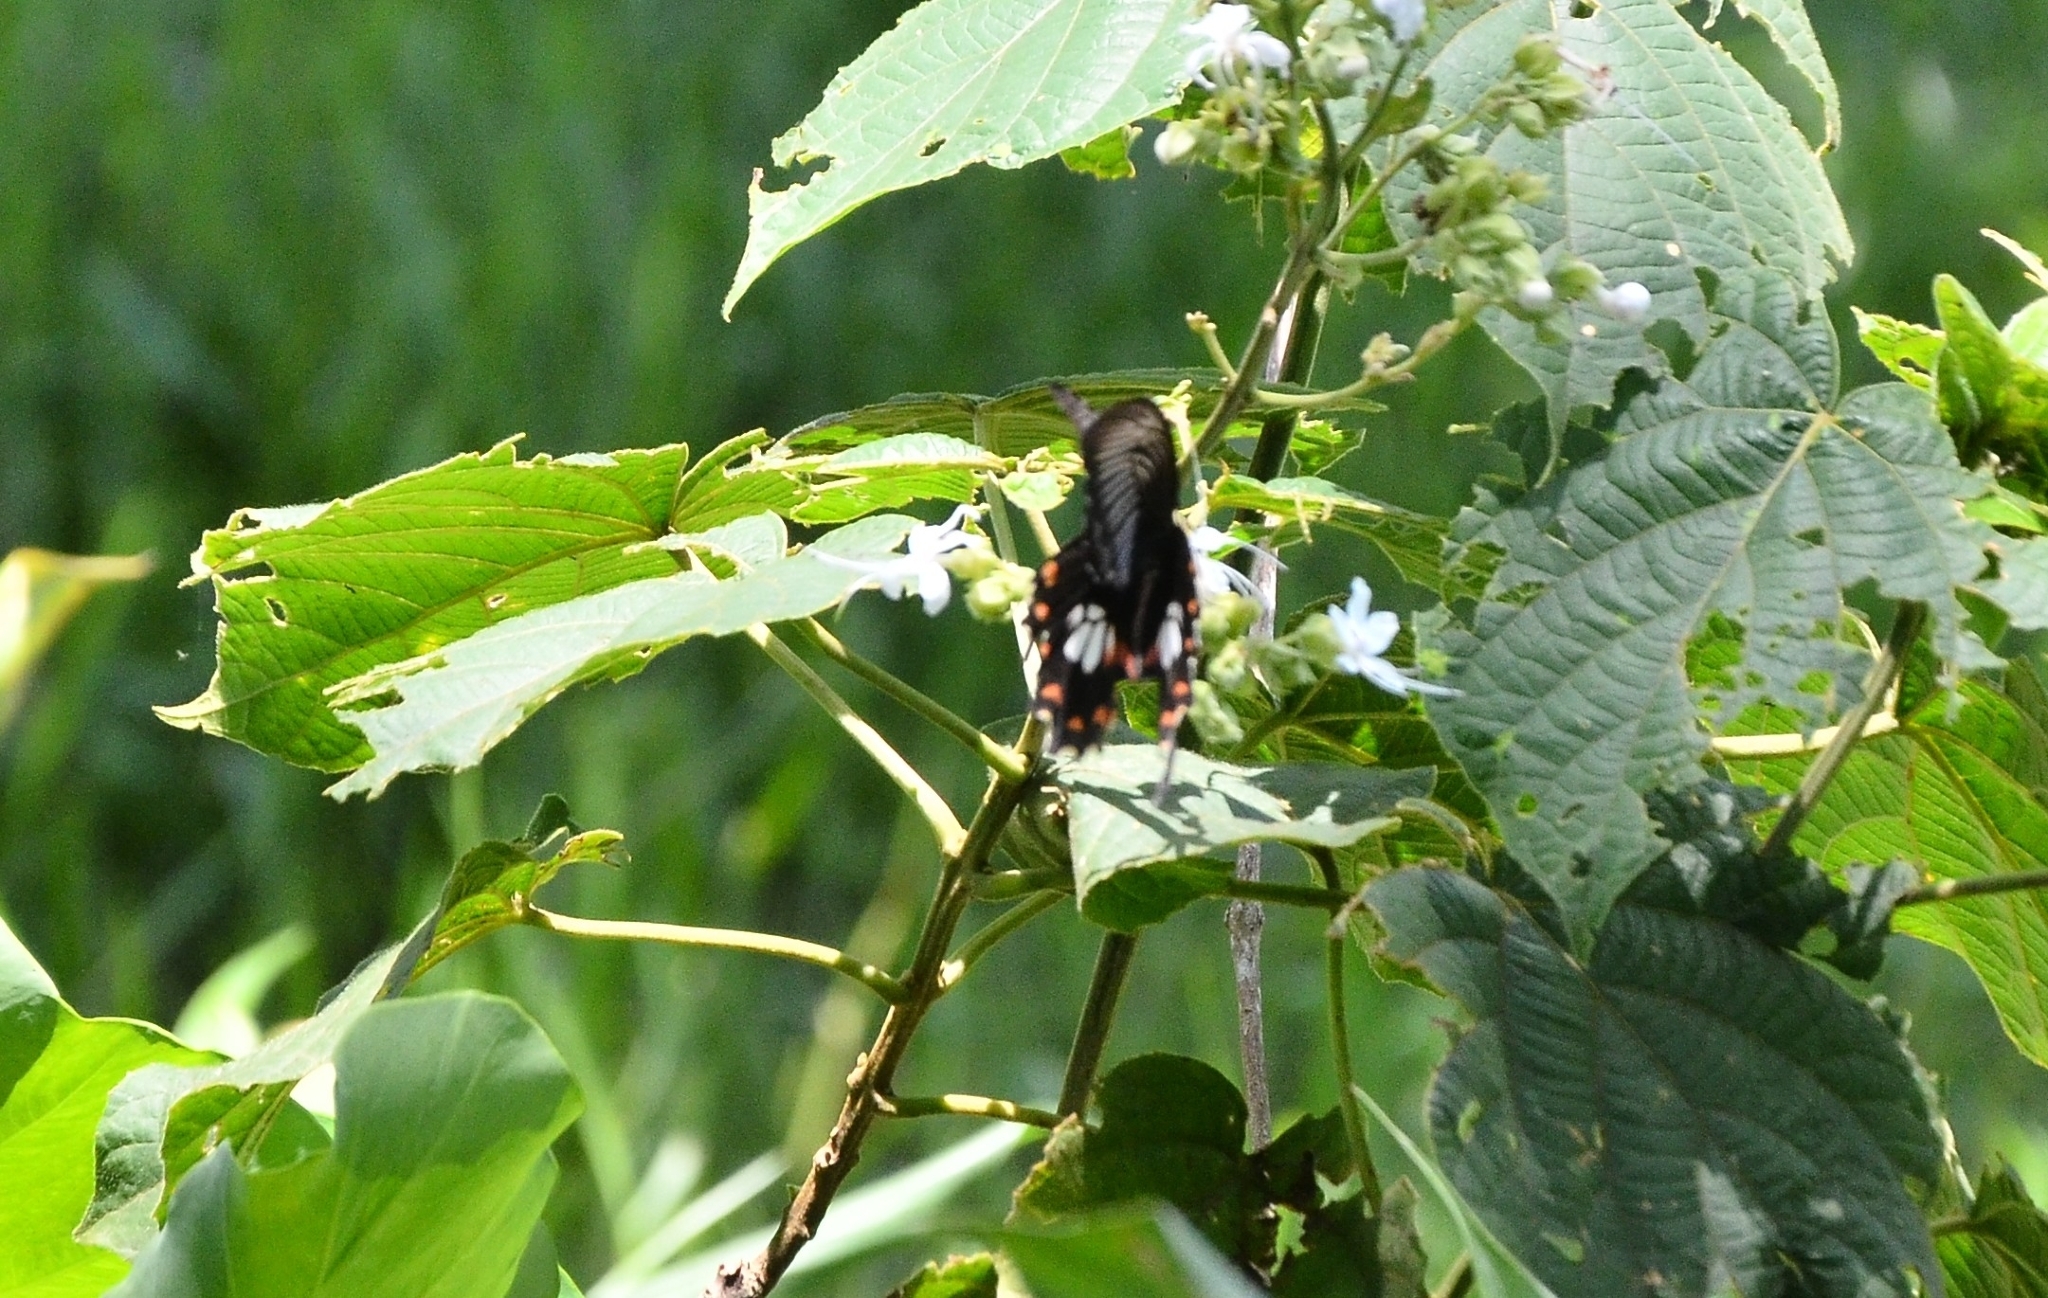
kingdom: Animalia
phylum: Arthropoda
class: Insecta
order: Lepidoptera
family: Papilionidae
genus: Papilio
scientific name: Papilio polytes
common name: Common mormon
